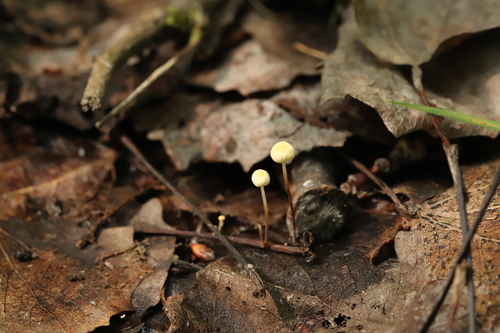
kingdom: Fungi
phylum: Basidiomycota
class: Agaricomycetes
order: Agaricales
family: Marasmiaceae
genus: Marasmius
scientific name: Marasmius epiphyllus
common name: Leaf parachute
